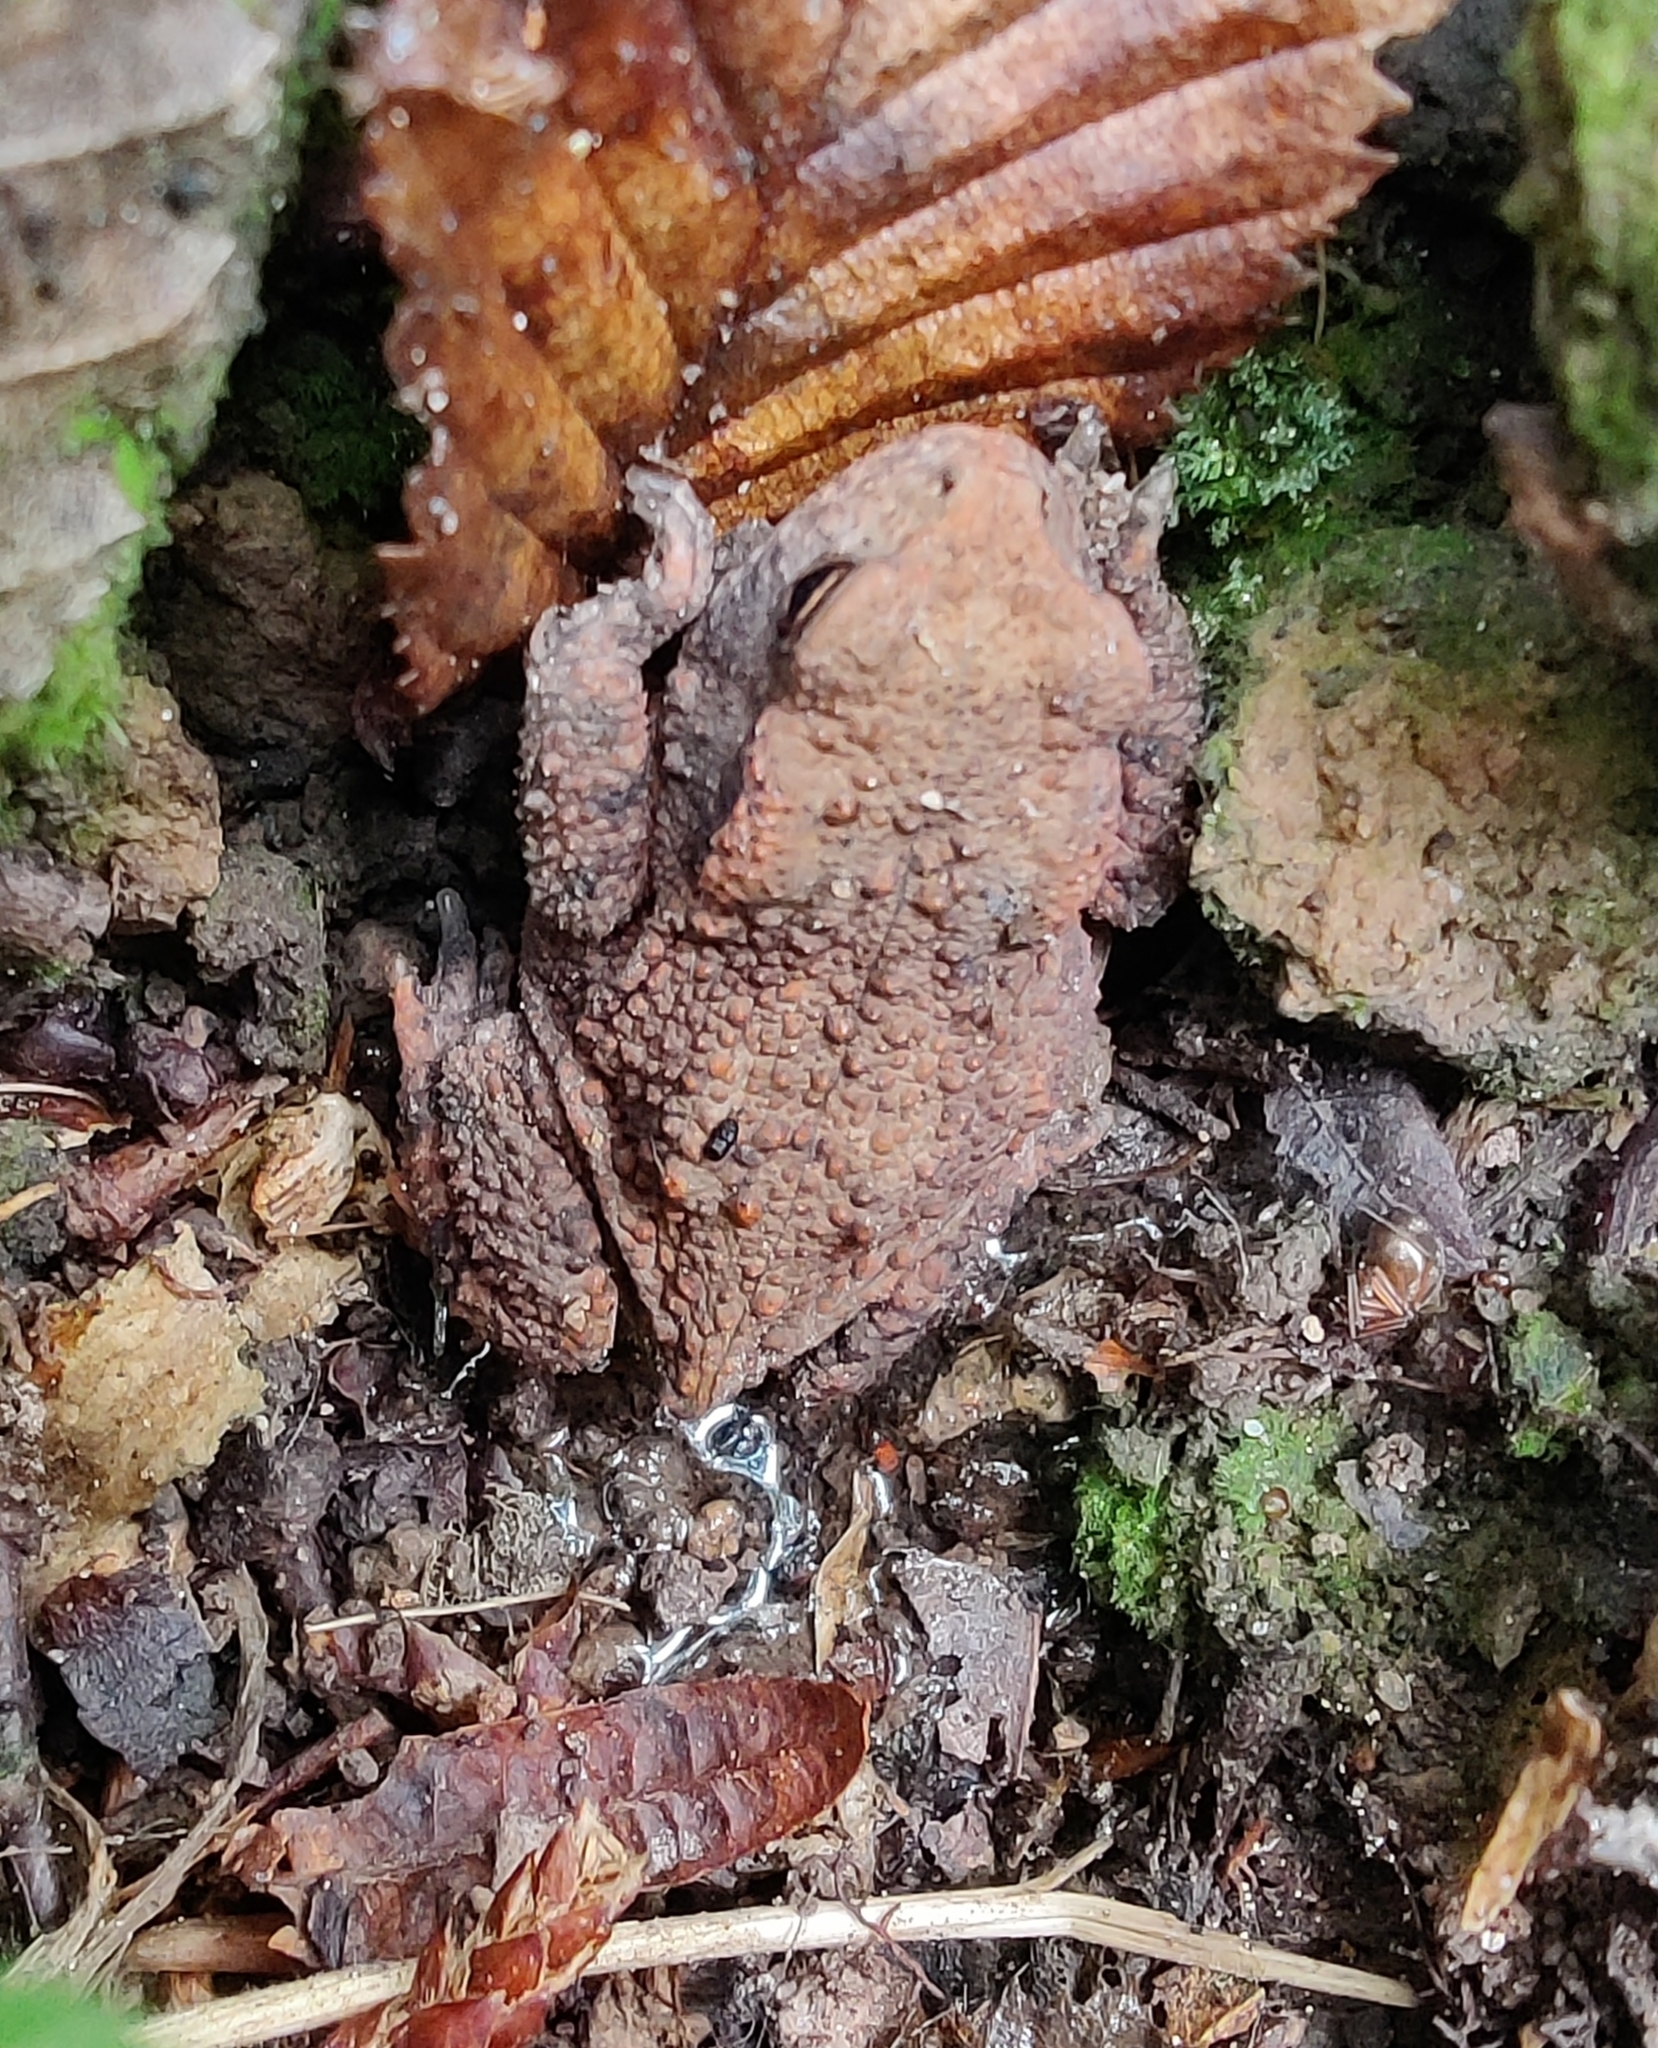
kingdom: Animalia
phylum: Chordata
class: Amphibia
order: Anura
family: Bufonidae
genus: Bufo
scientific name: Bufo bufo
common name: Common toad
